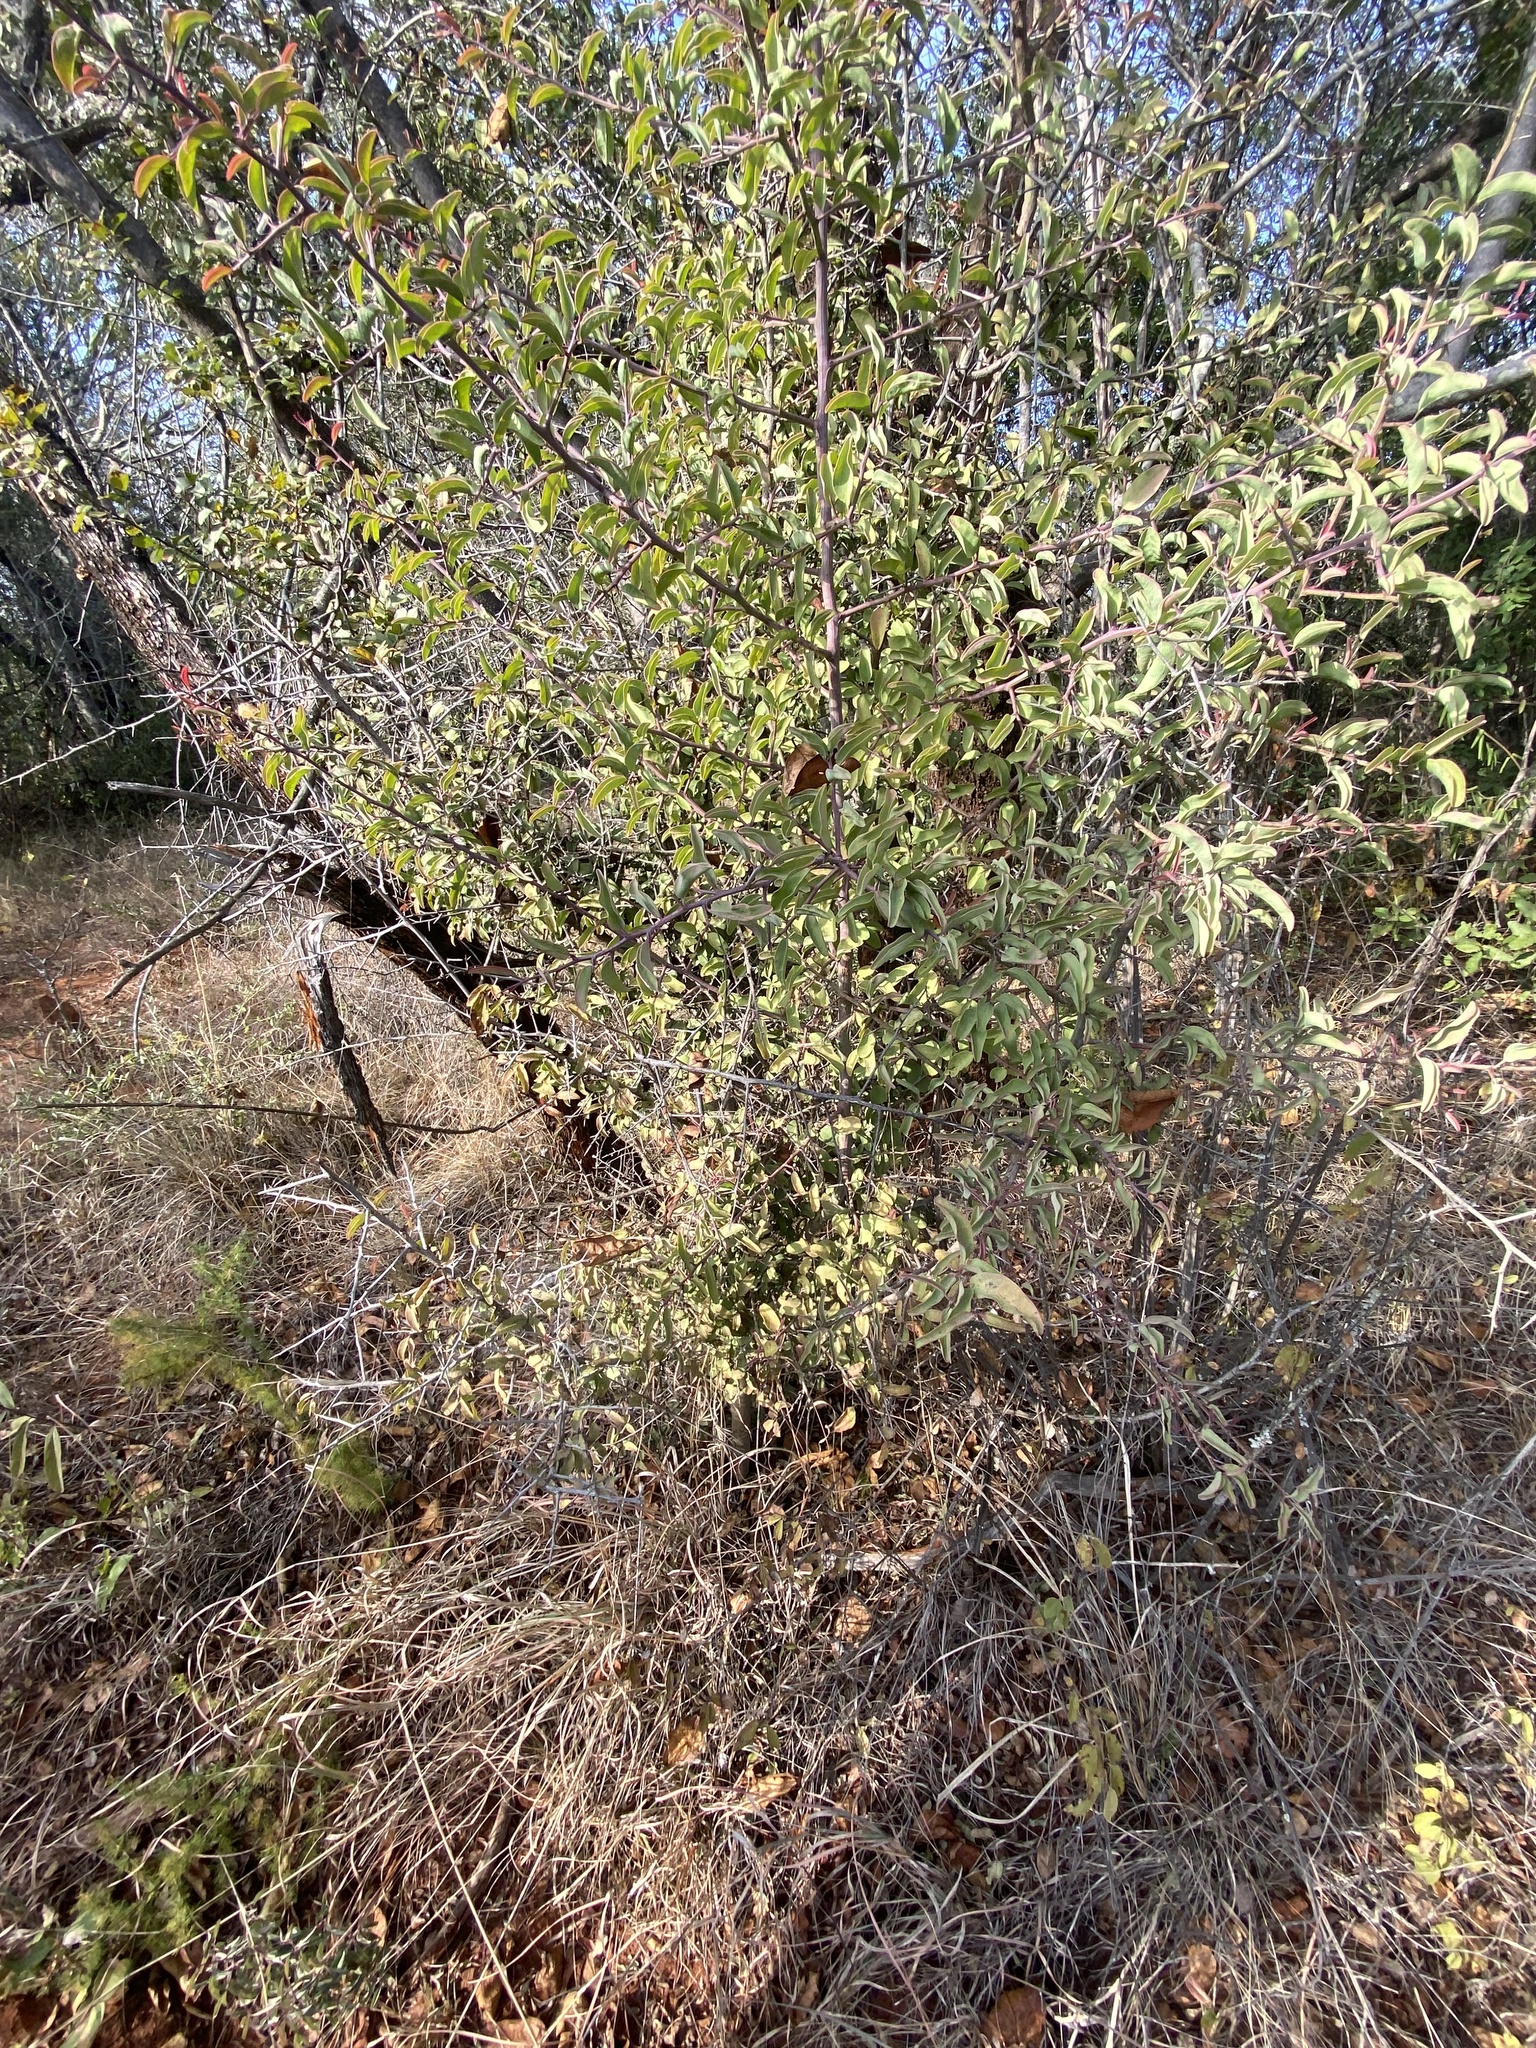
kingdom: Plantae
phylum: Tracheophyta
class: Magnoliopsida
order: Santalales
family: Ximeniaceae
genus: Ximenia
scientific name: Ximenia americana
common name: Tallowwood
